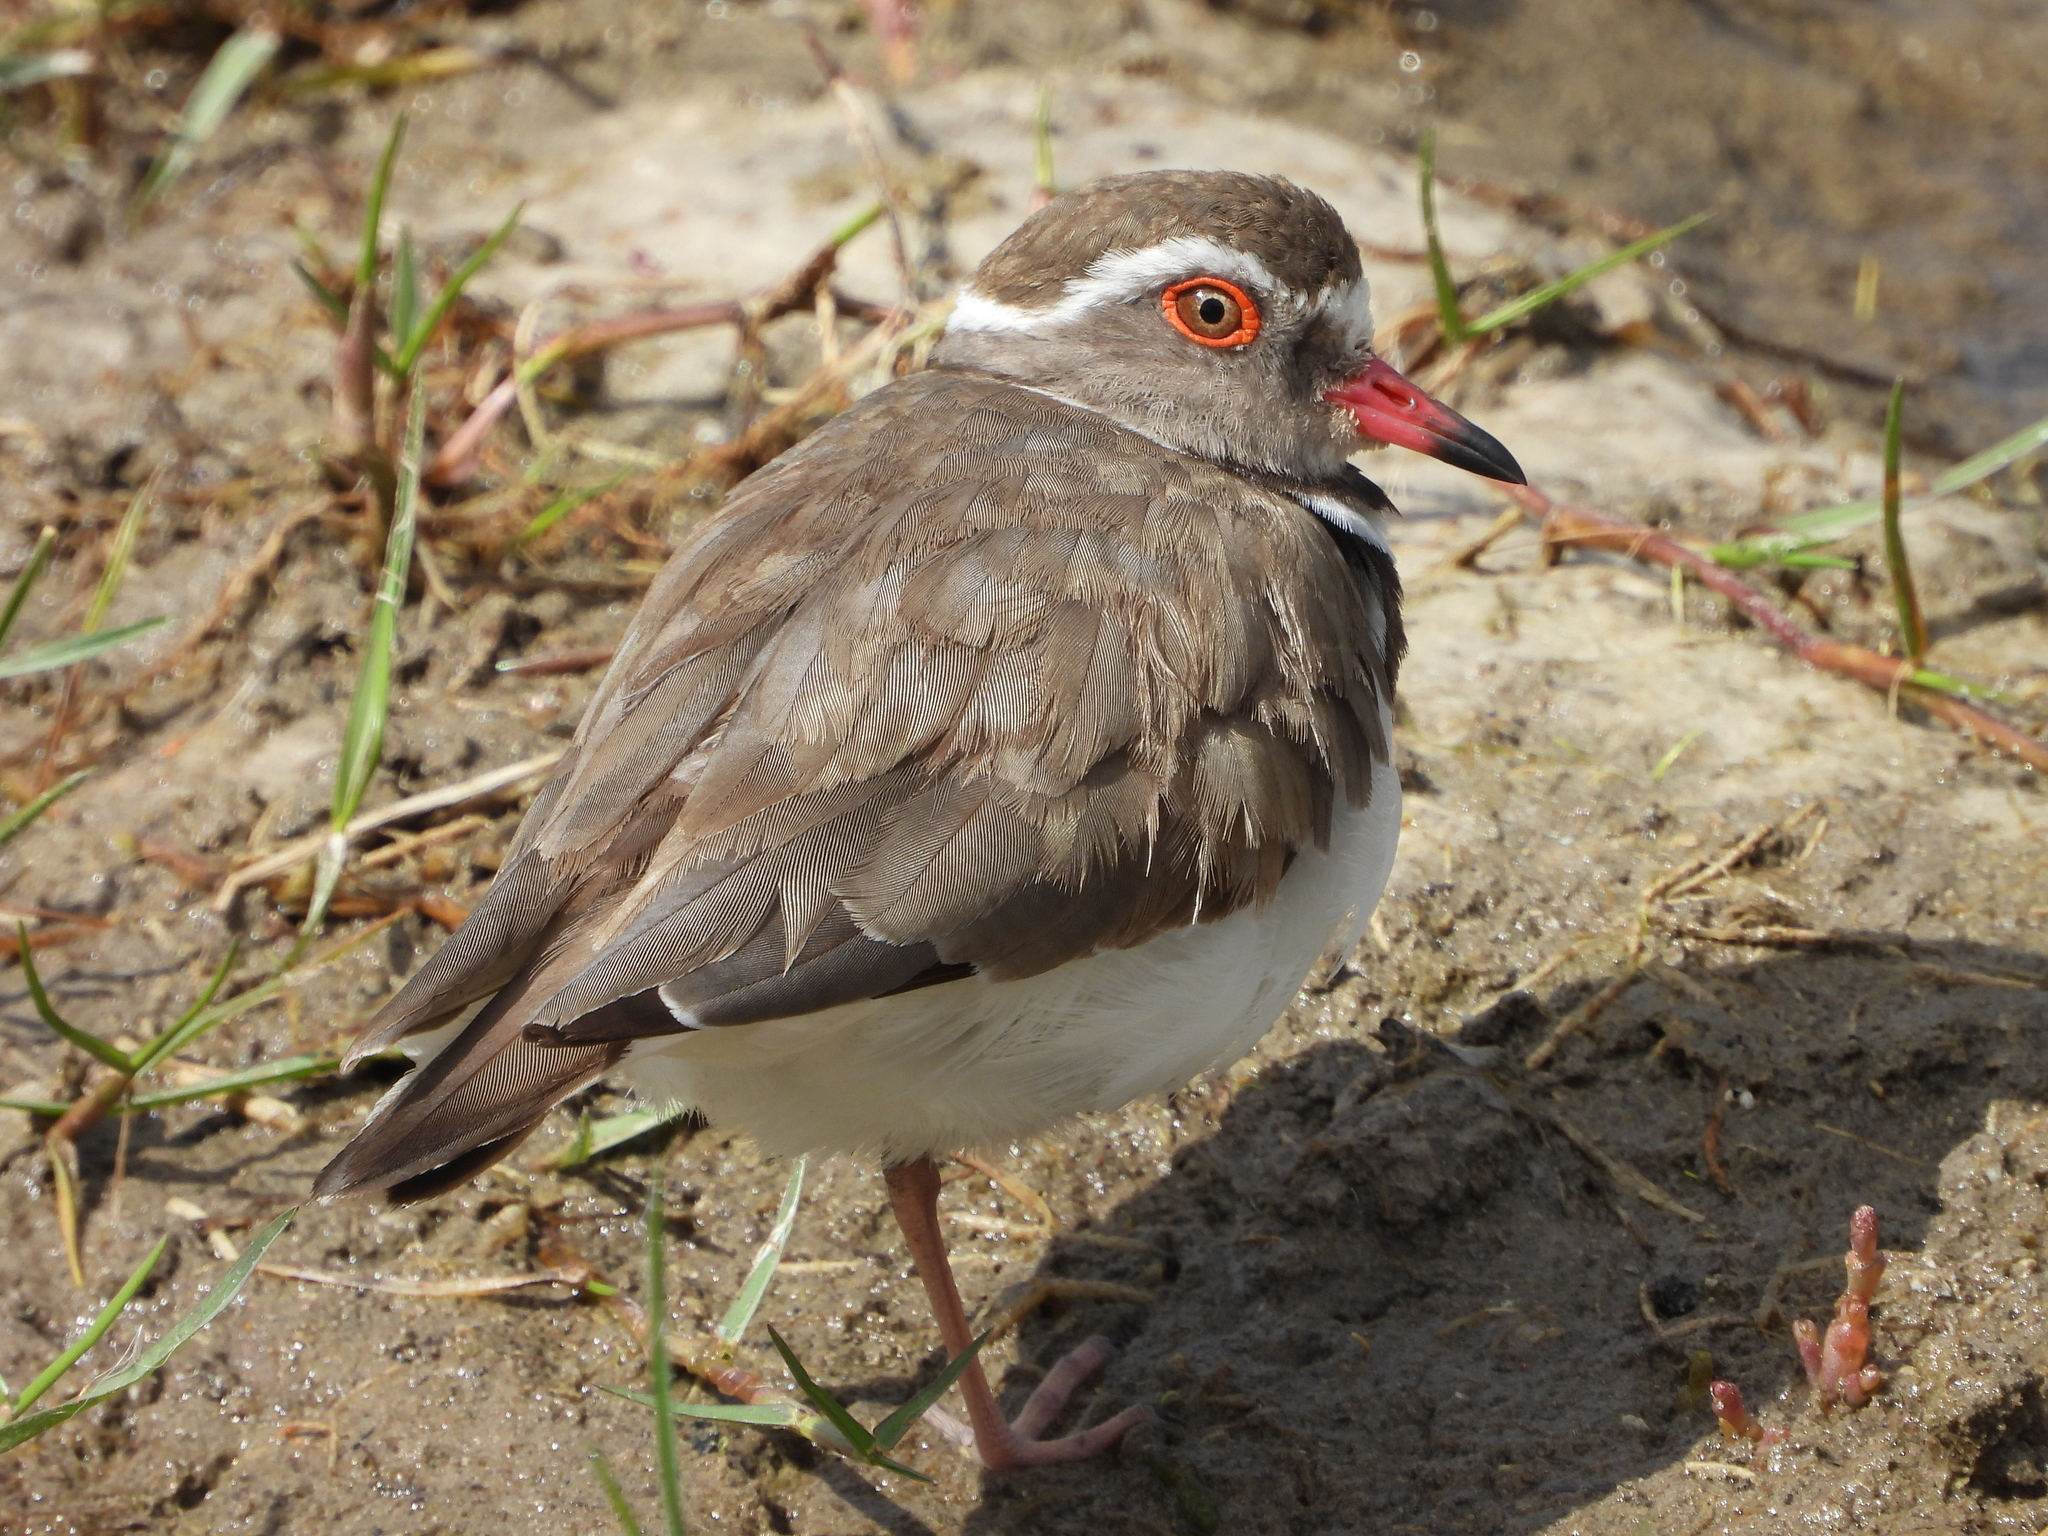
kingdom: Animalia
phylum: Chordata
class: Aves
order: Charadriiformes
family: Charadriidae
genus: Charadrius
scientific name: Charadrius tricollaris
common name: Three-banded plover
